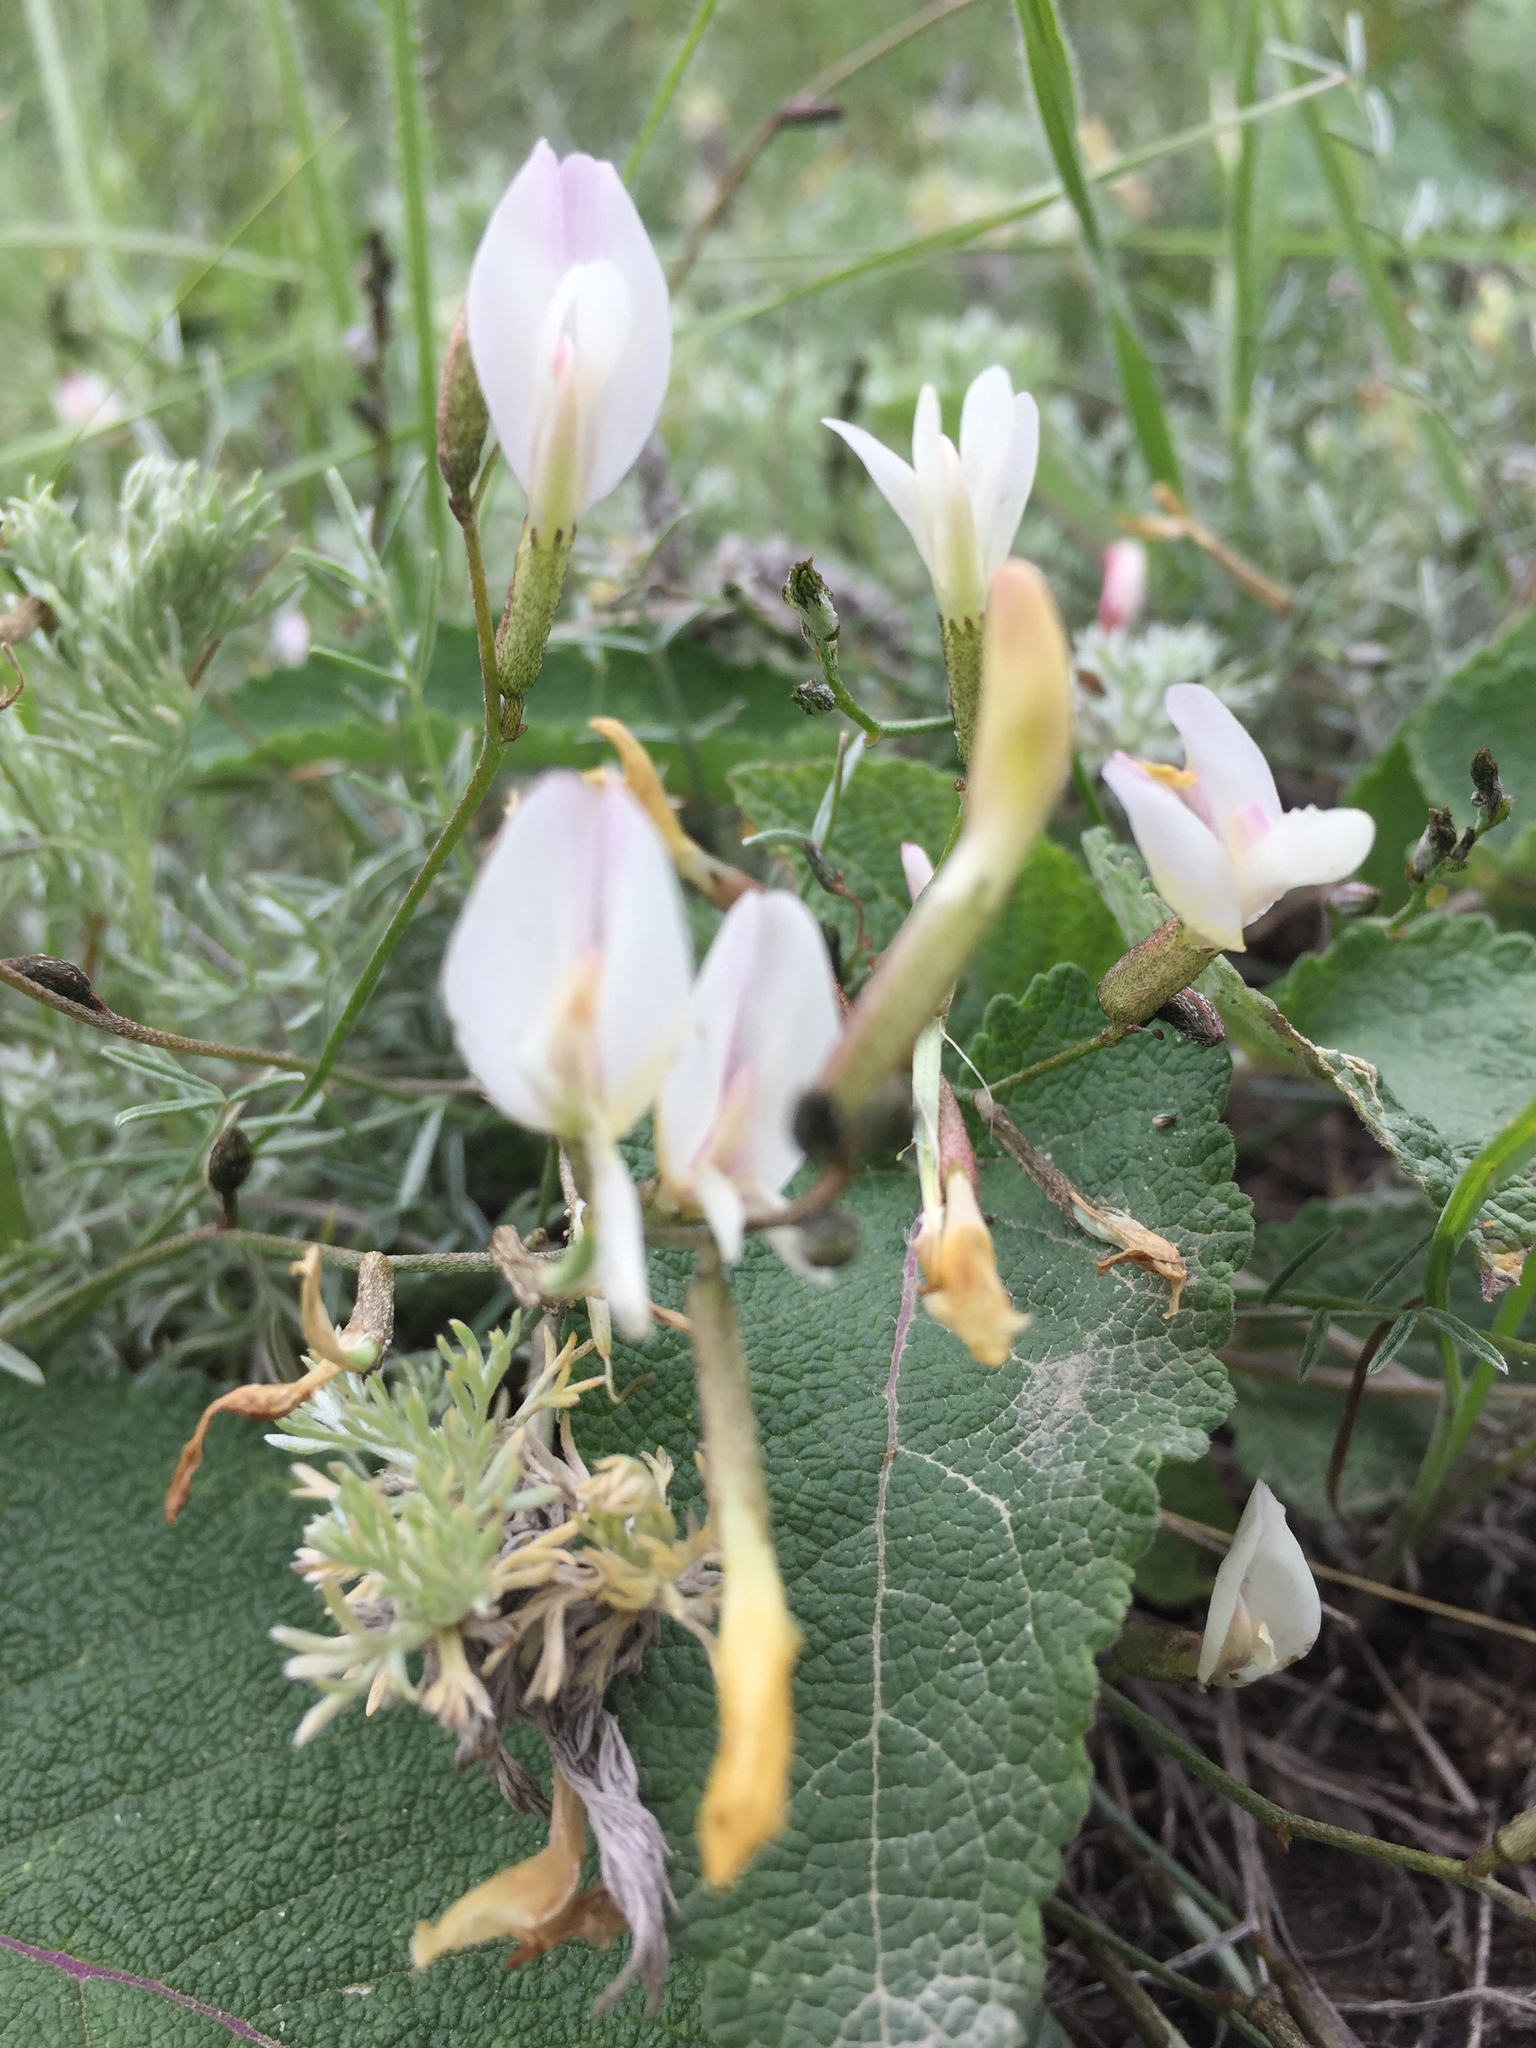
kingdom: Plantae
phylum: Tracheophyta
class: Magnoliopsida
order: Fabales
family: Fabaceae
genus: Astragalus
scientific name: Astragalus ucrainicus
